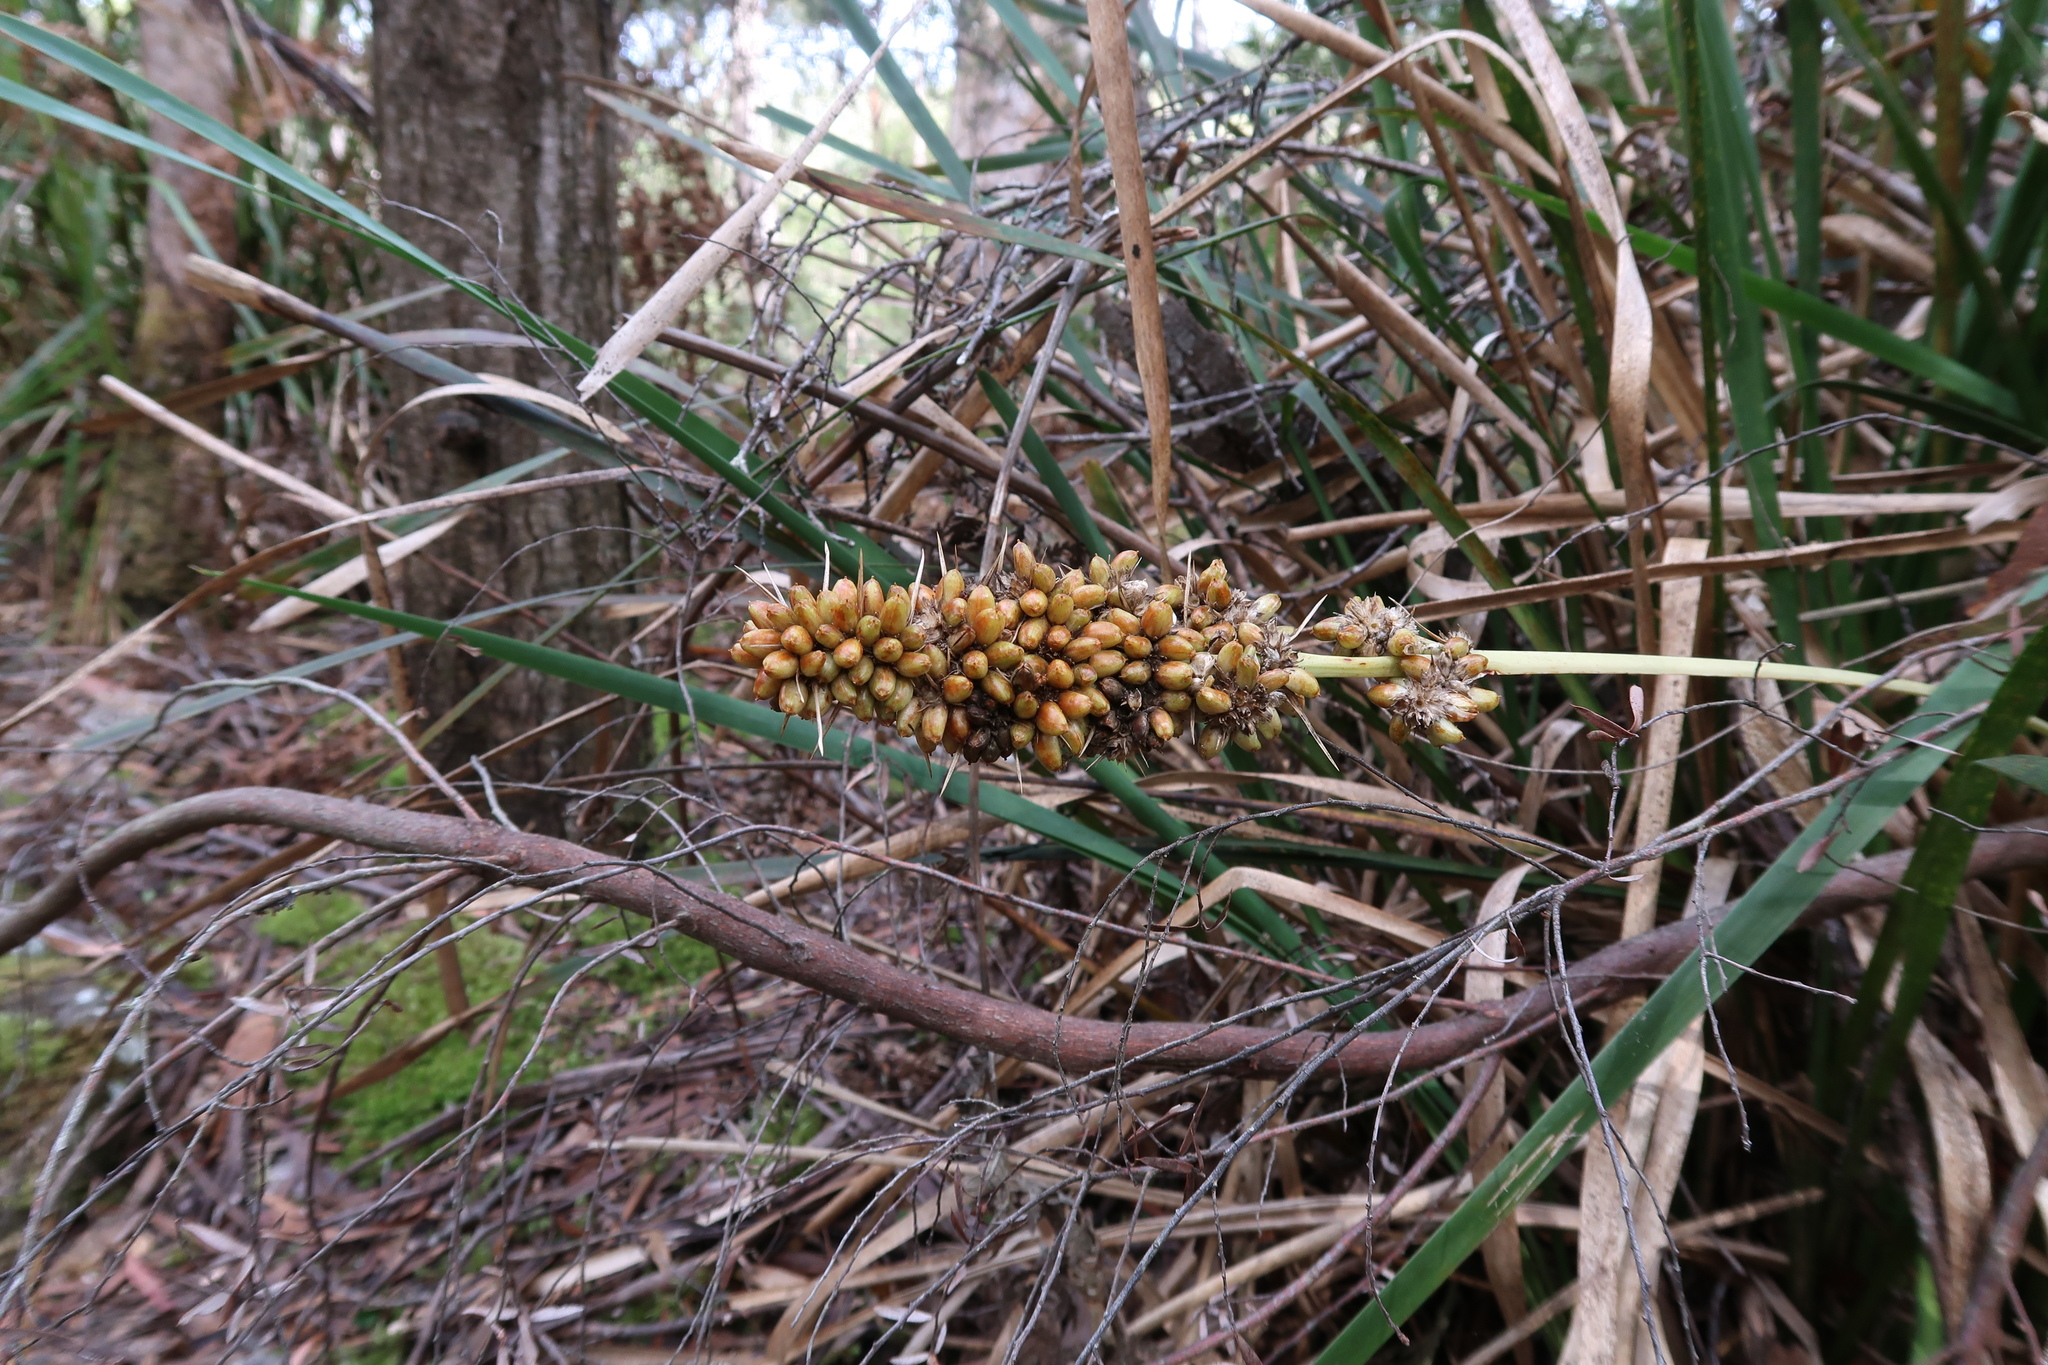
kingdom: Plantae
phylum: Tracheophyta
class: Liliopsida
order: Asparagales
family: Asparagaceae
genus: Lomandra
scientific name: Lomandra longifolia
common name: Longleaf mat-rush
